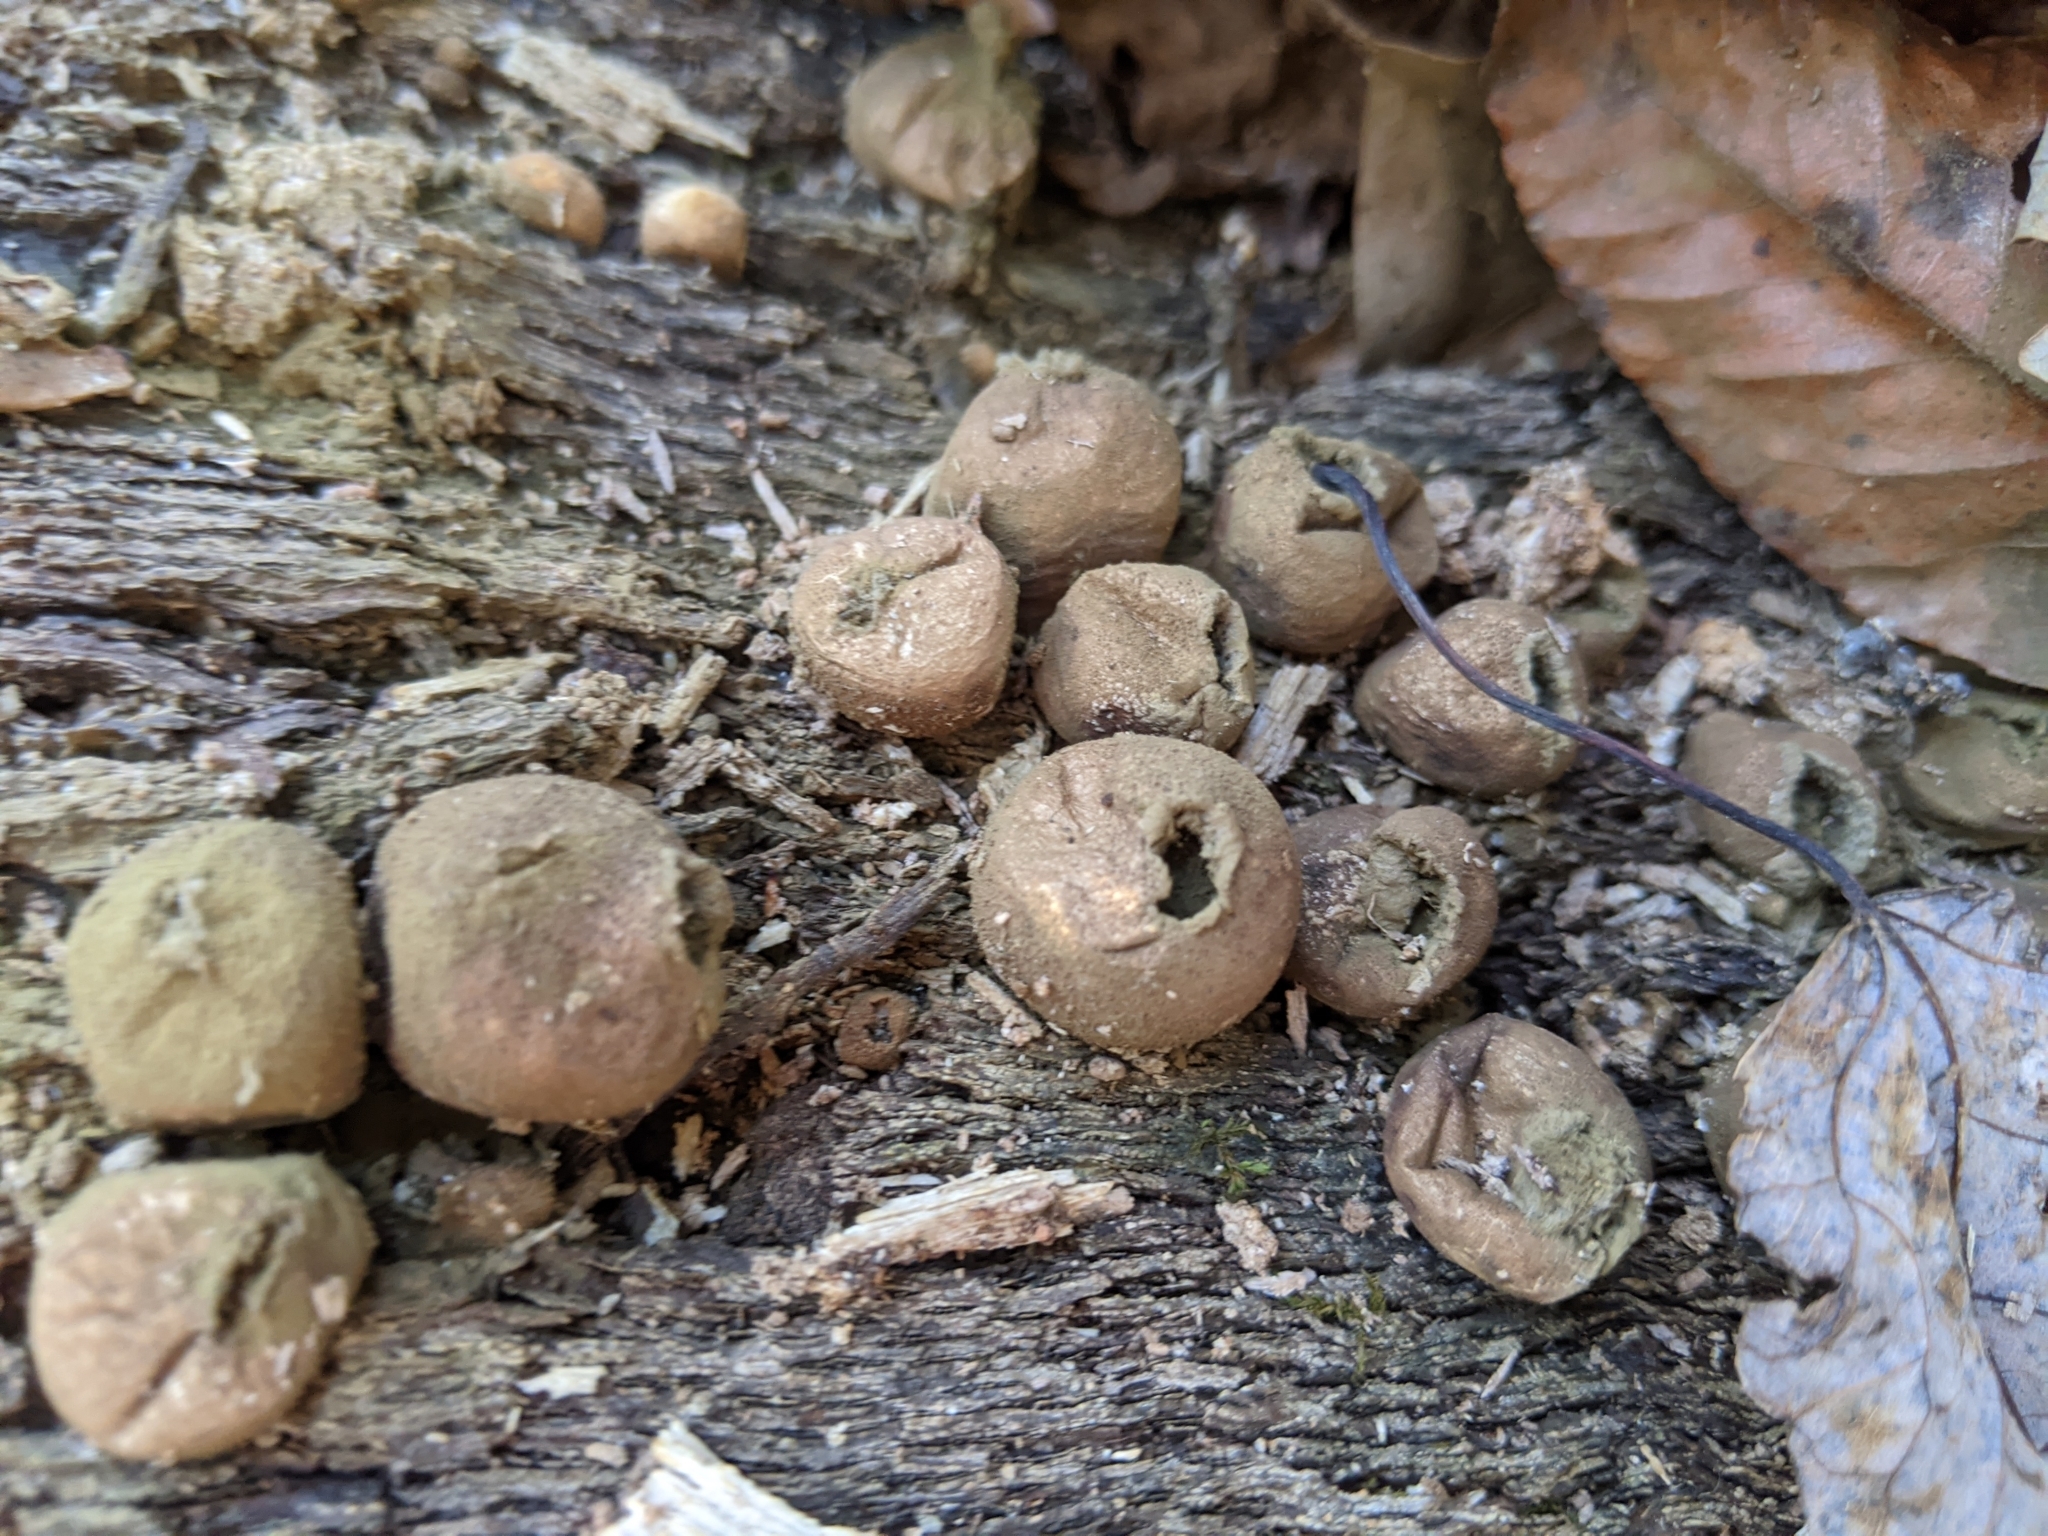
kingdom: Fungi
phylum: Basidiomycota
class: Agaricomycetes
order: Agaricales
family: Lycoperdaceae
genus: Apioperdon
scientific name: Apioperdon pyriforme
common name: Pear-shaped puffball
